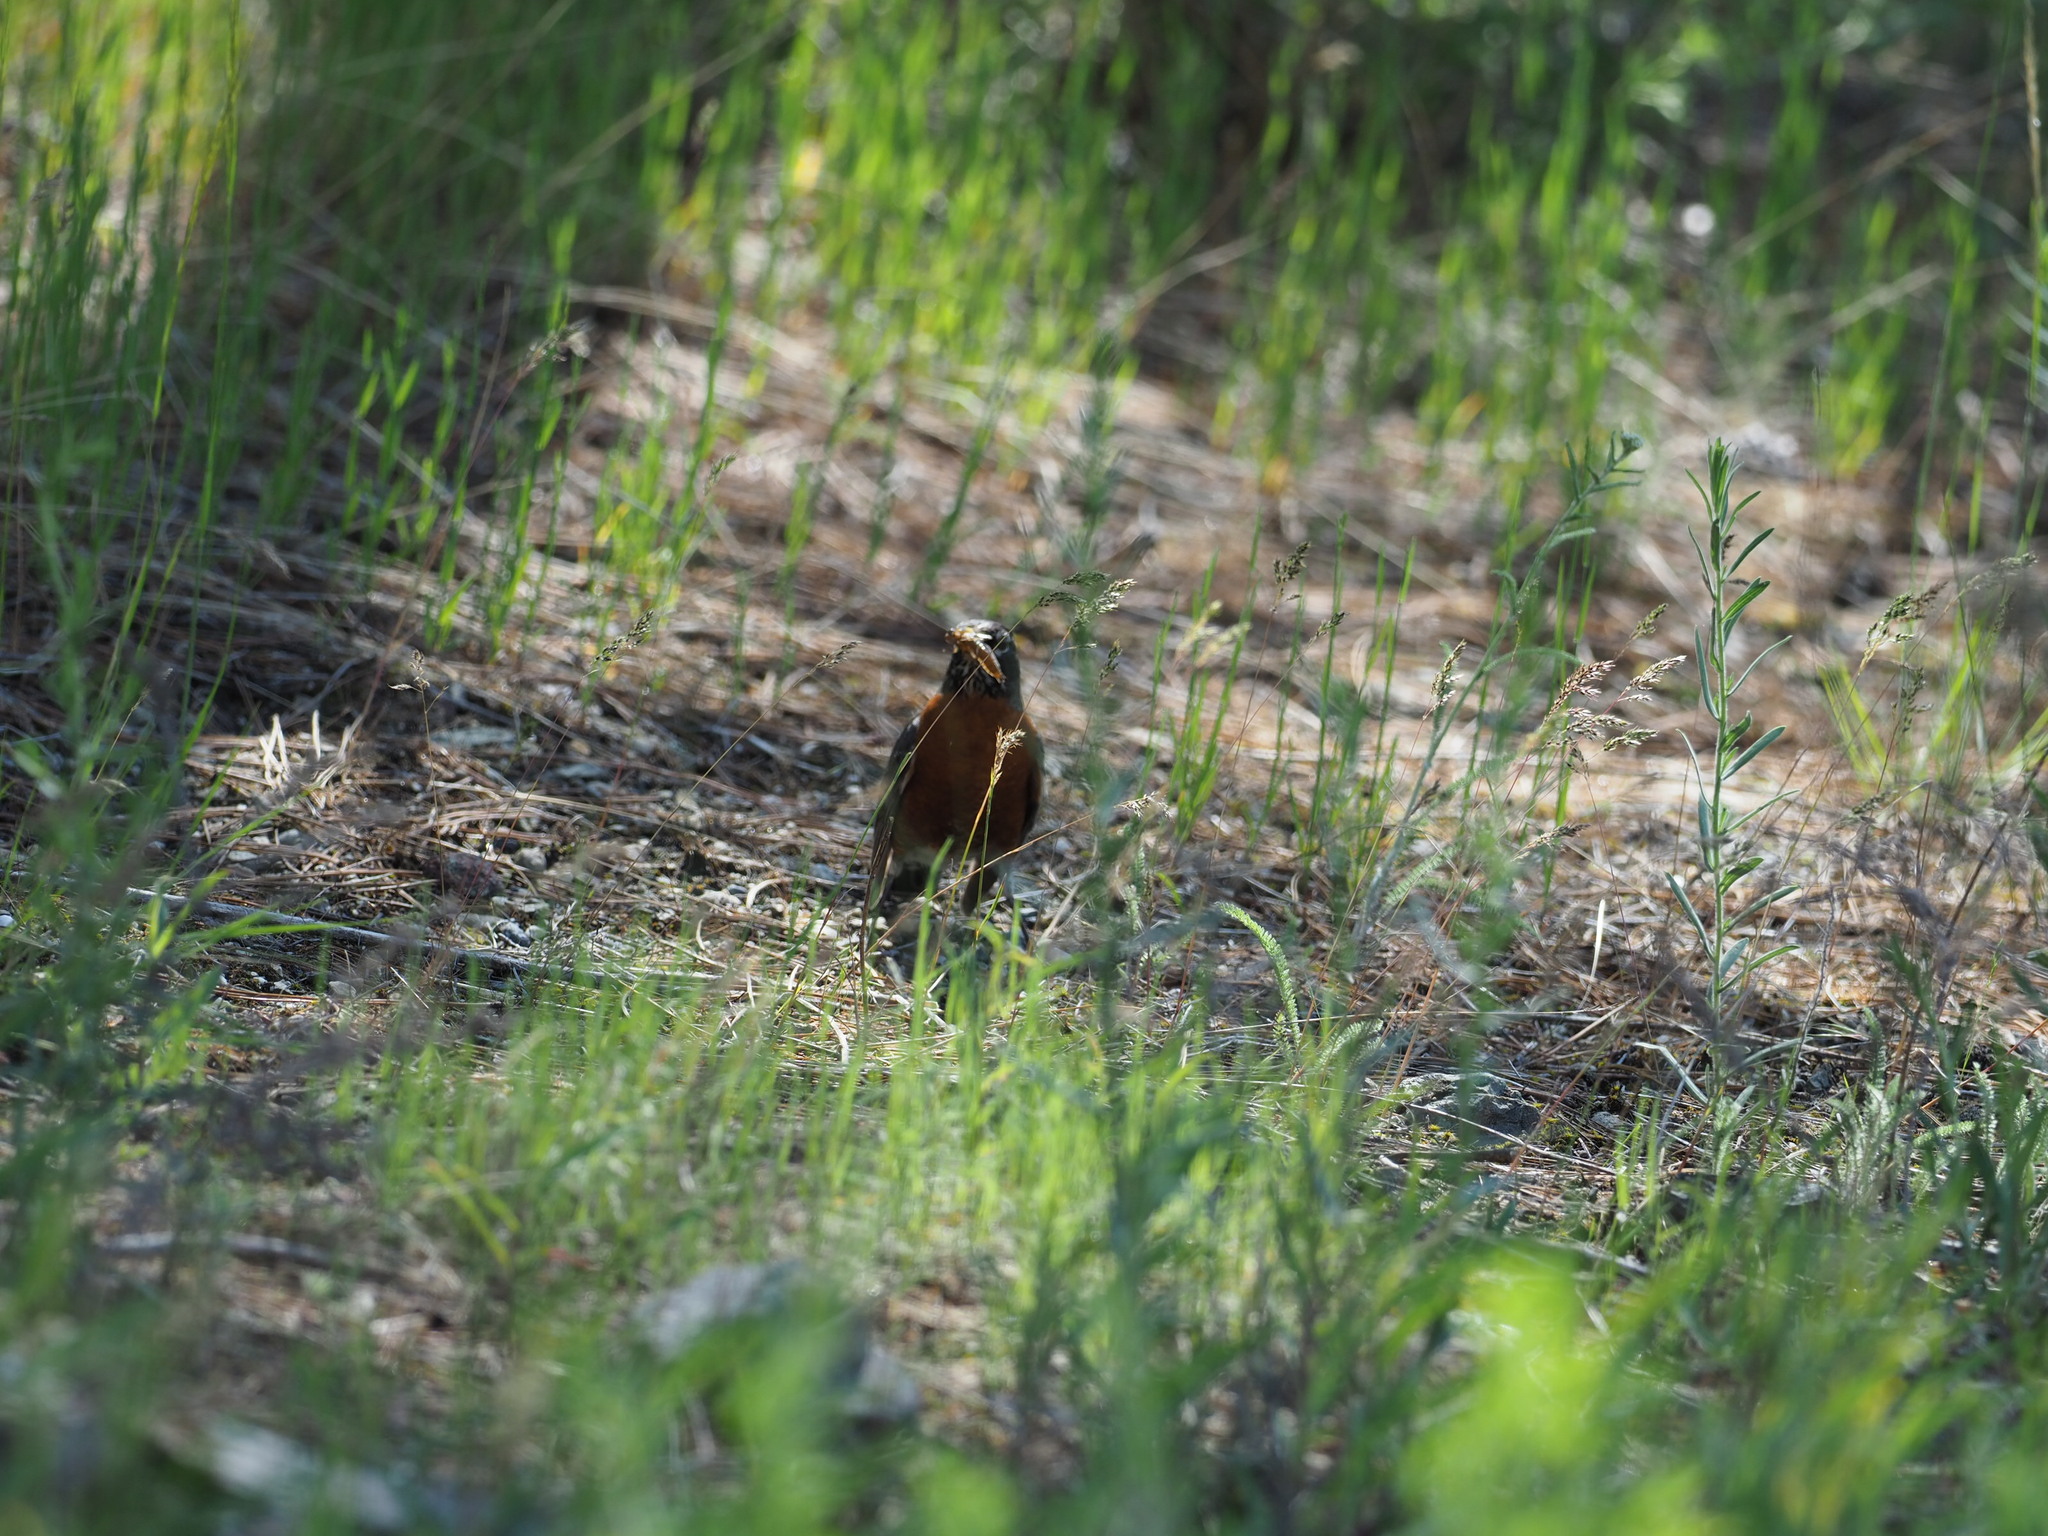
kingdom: Animalia
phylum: Chordata
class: Aves
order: Passeriformes
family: Turdidae
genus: Turdus
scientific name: Turdus migratorius
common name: American robin
